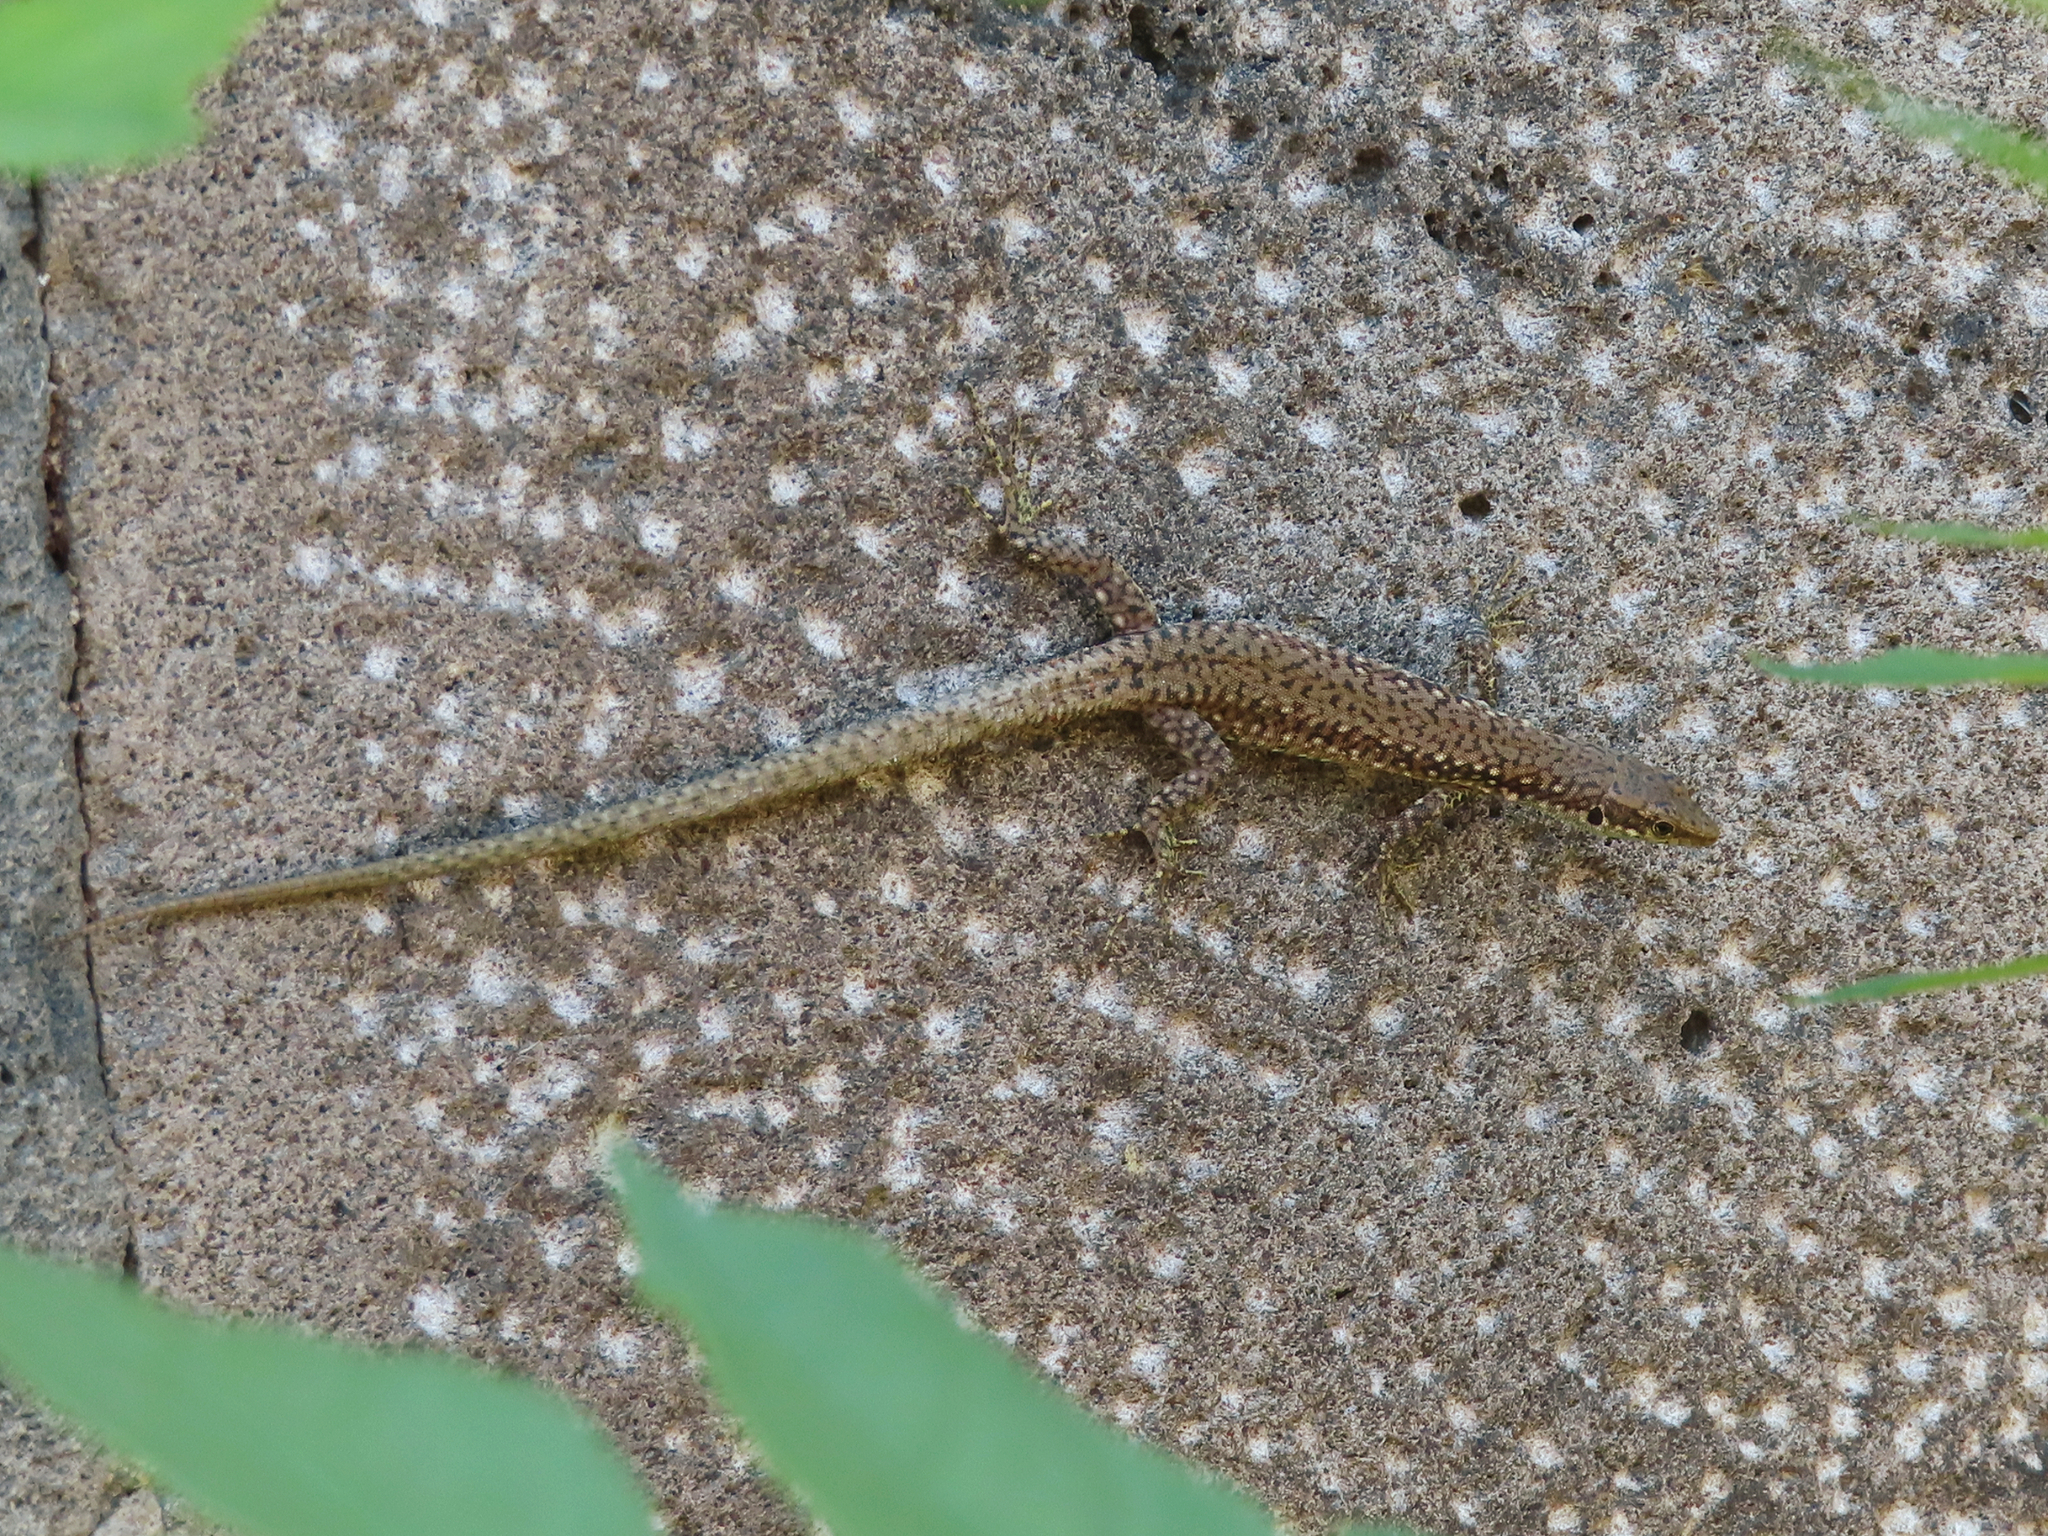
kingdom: Animalia
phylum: Chordata
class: Squamata
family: Lacertidae
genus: Darevskia
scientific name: Darevskia portschinskii
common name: River kura lizard
